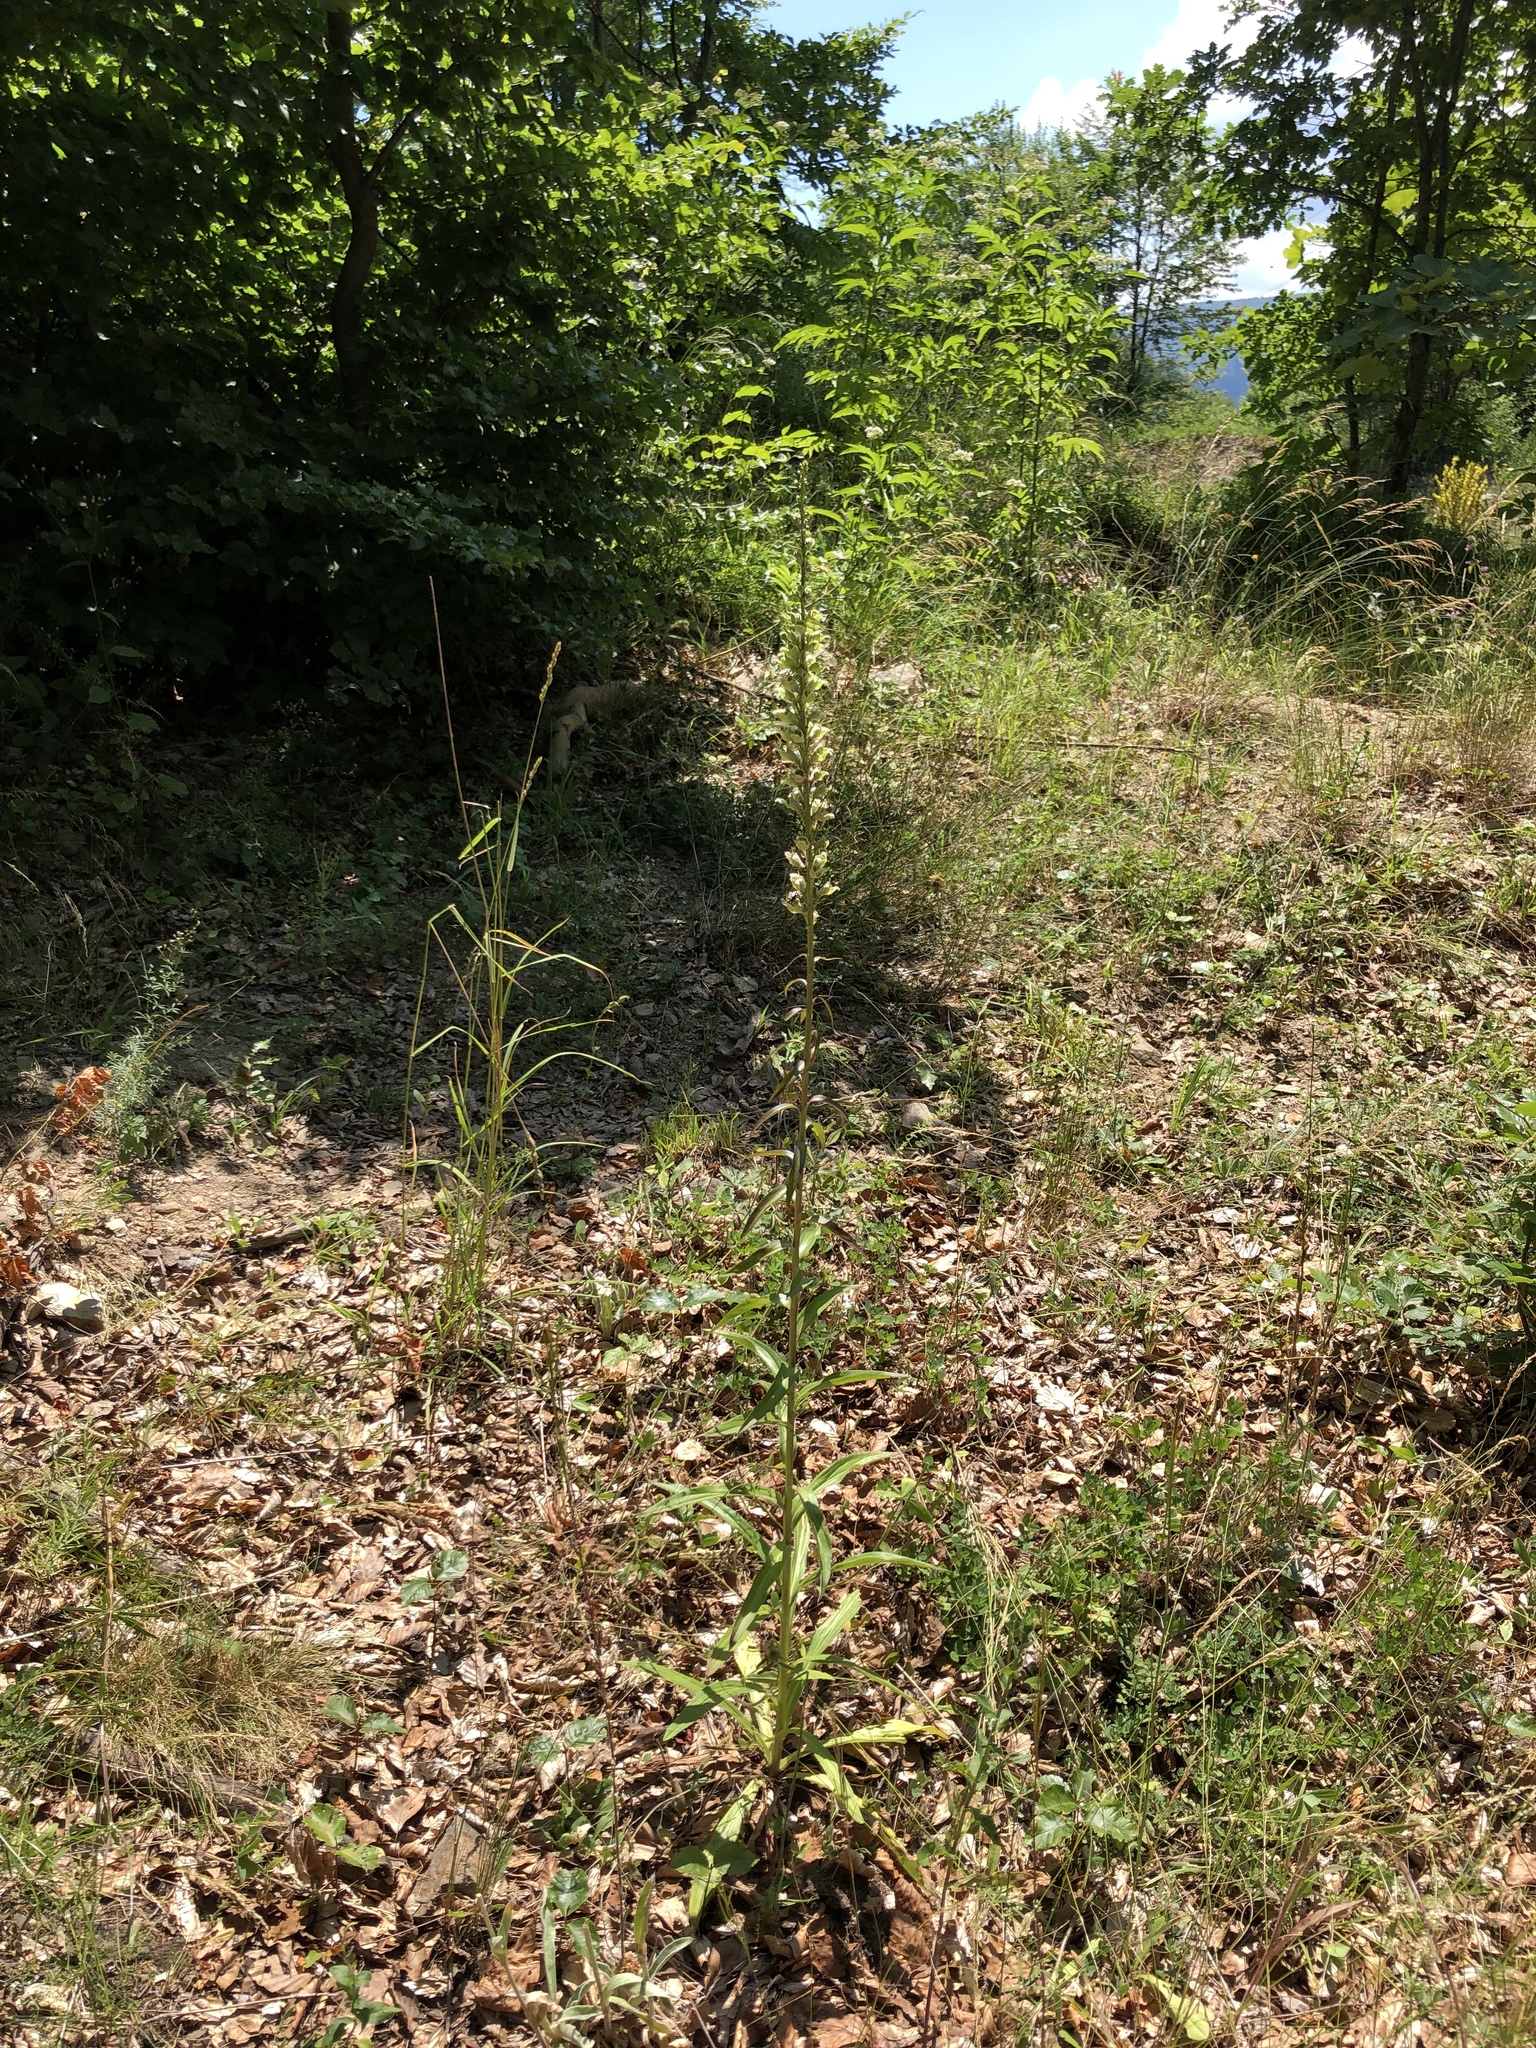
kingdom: Plantae
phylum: Tracheophyta
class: Magnoliopsida
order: Lamiales
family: Plantaginaceae
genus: Digitalis
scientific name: Digitalis laevigata
